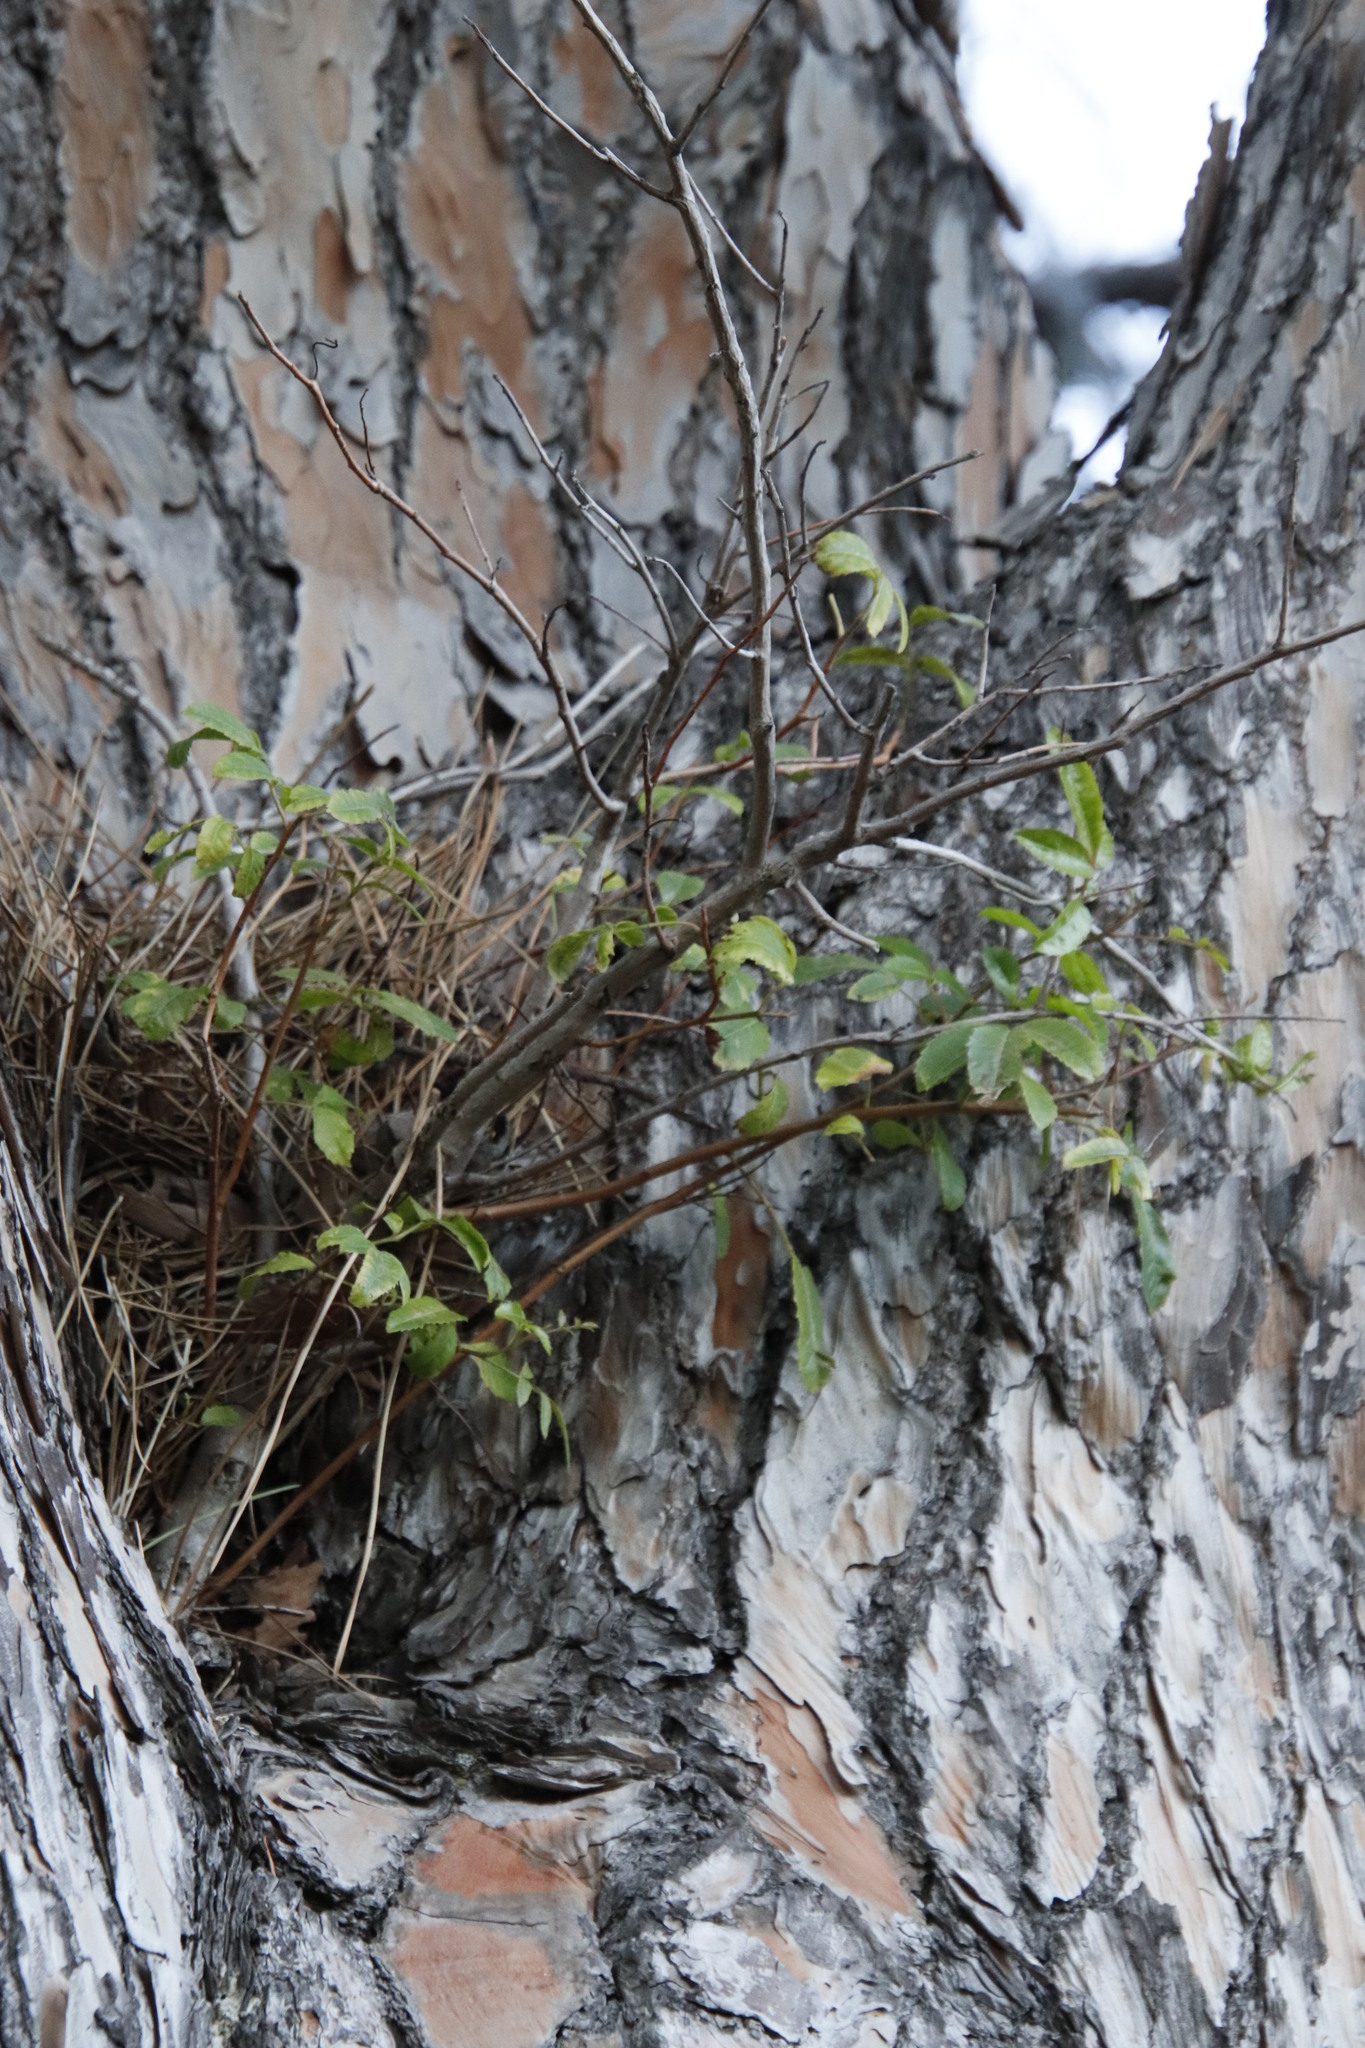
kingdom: Plantae
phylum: Tracheophyta
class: Magnoliopsida
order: Sapindales
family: Anacardiaceae
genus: Schinus
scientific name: Schinus terebinthifolia
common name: Brazilian peppertree
